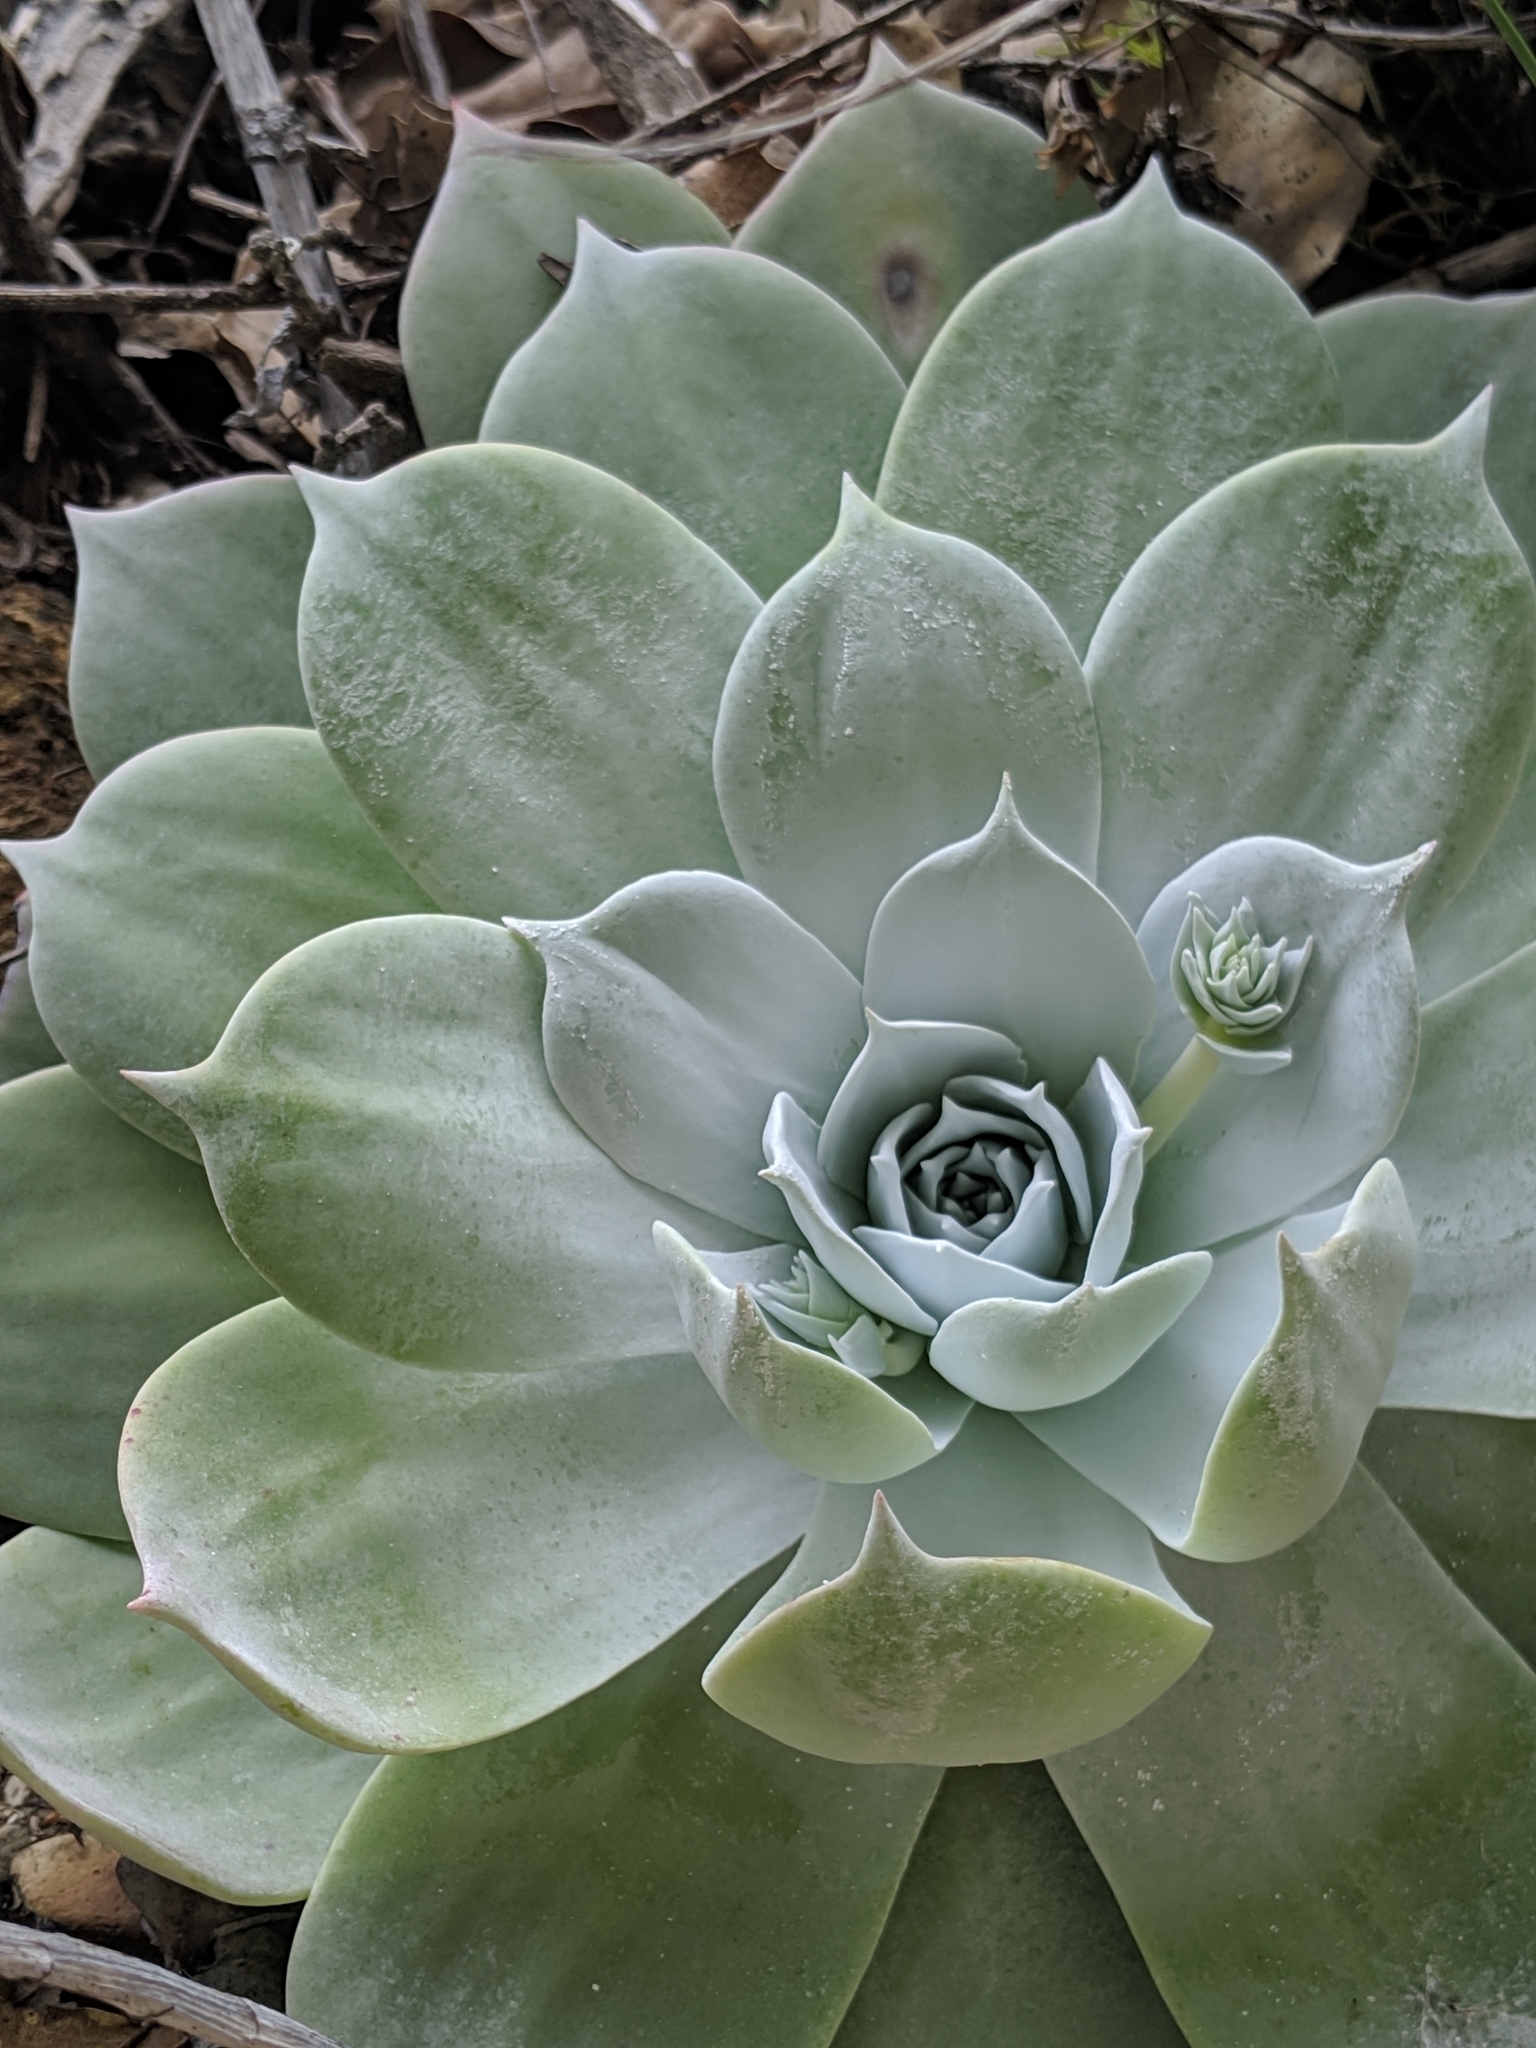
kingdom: Plantae
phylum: Tracheophyta
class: Magnoliopsida
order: Saxifragales
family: Crassulaceae
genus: Dudleya
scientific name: Dudleya pulverulenta
